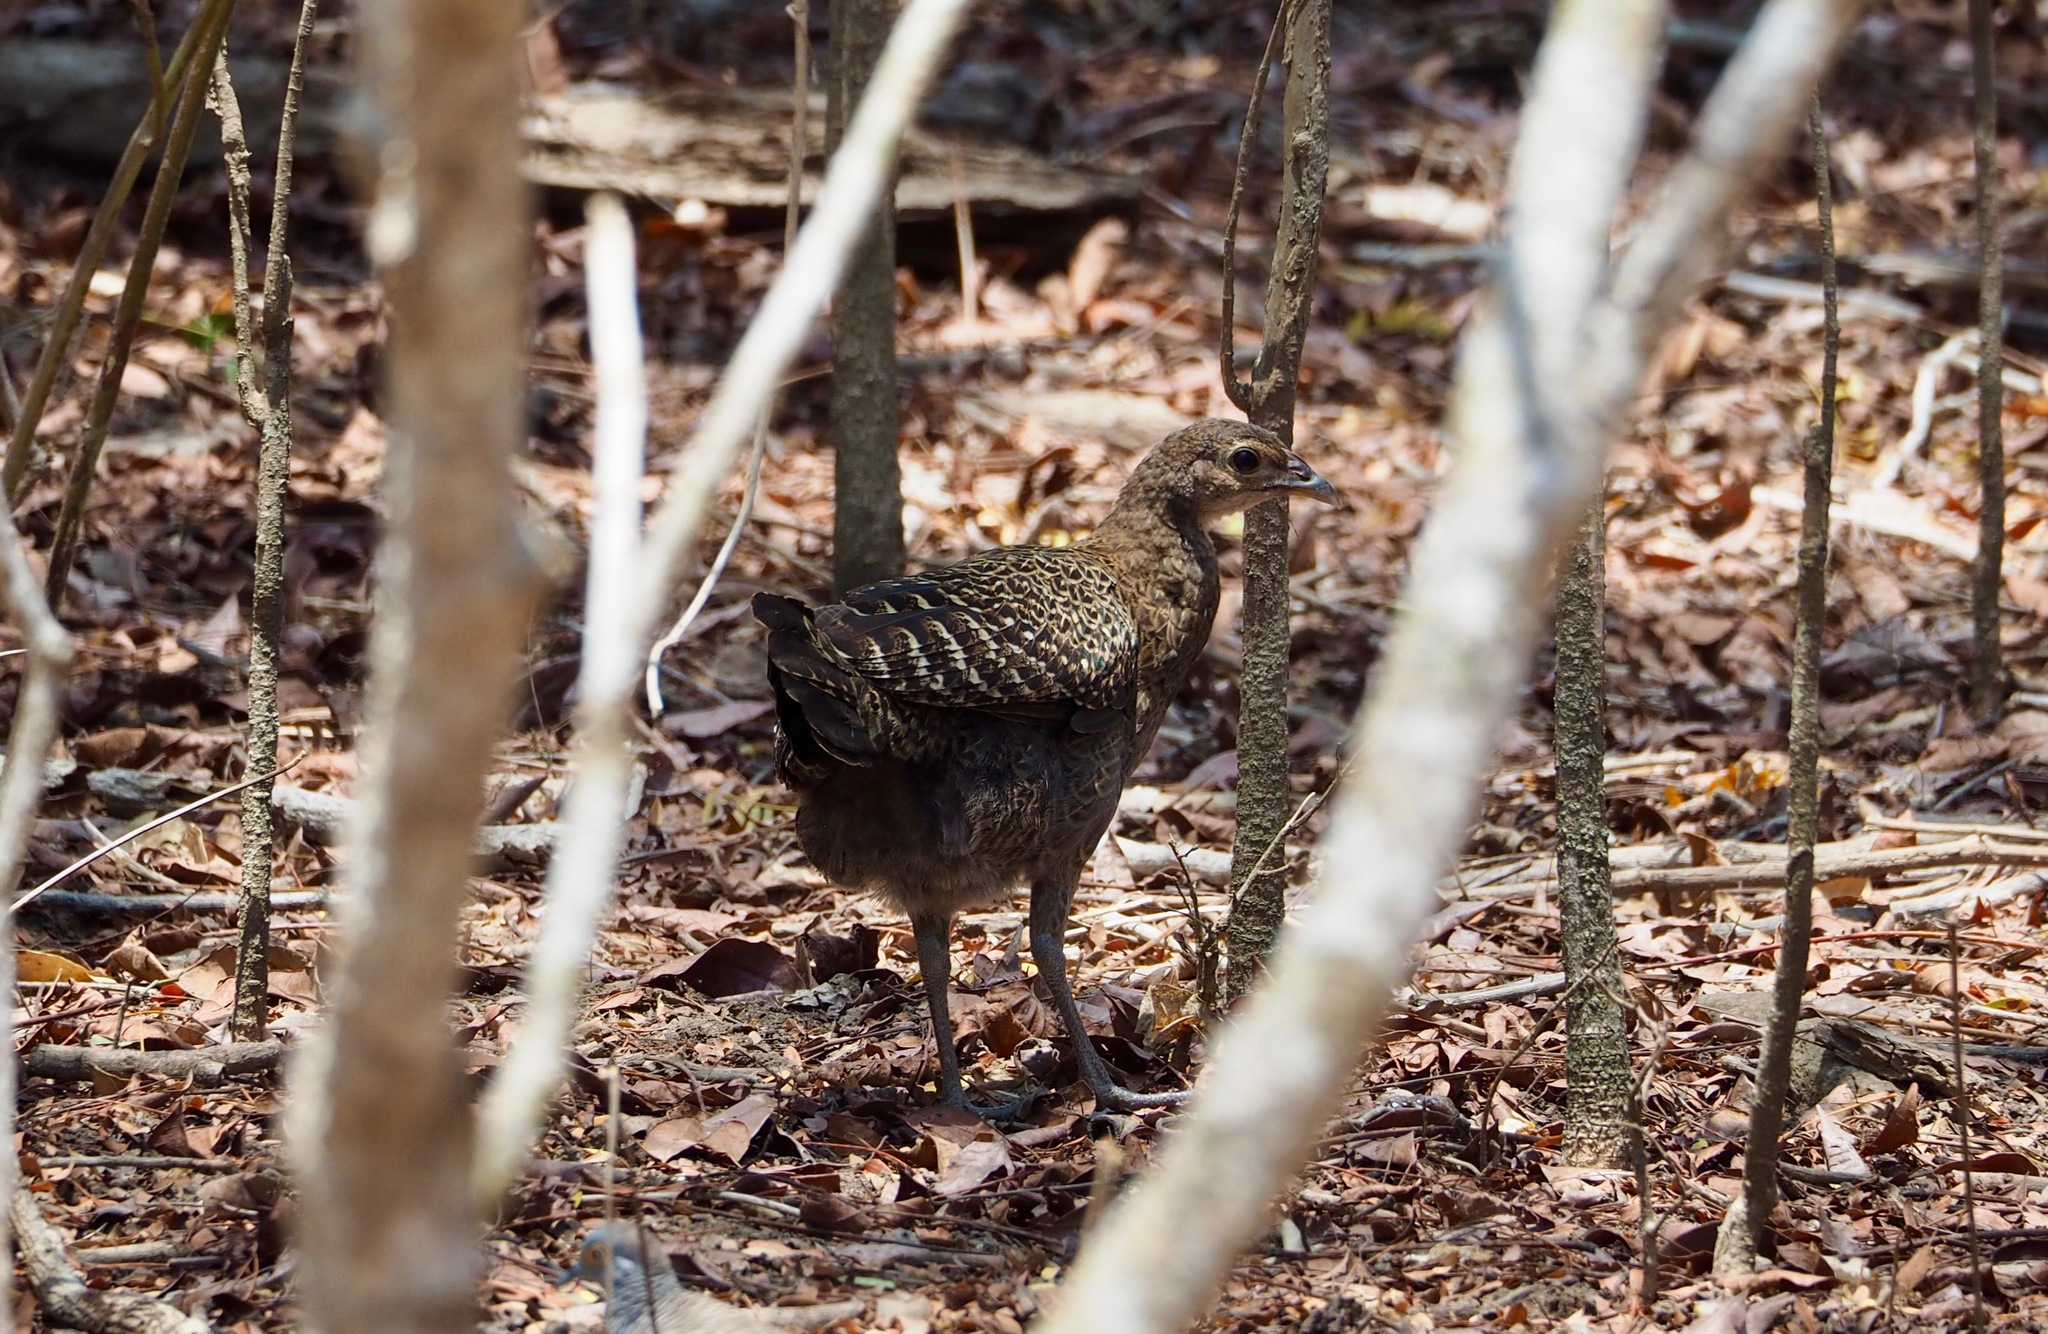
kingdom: Animalia
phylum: Chordata
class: Aves
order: Galliformes
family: Phasianidae
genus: Gallus
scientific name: Gallus varius
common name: Green junglefowl
